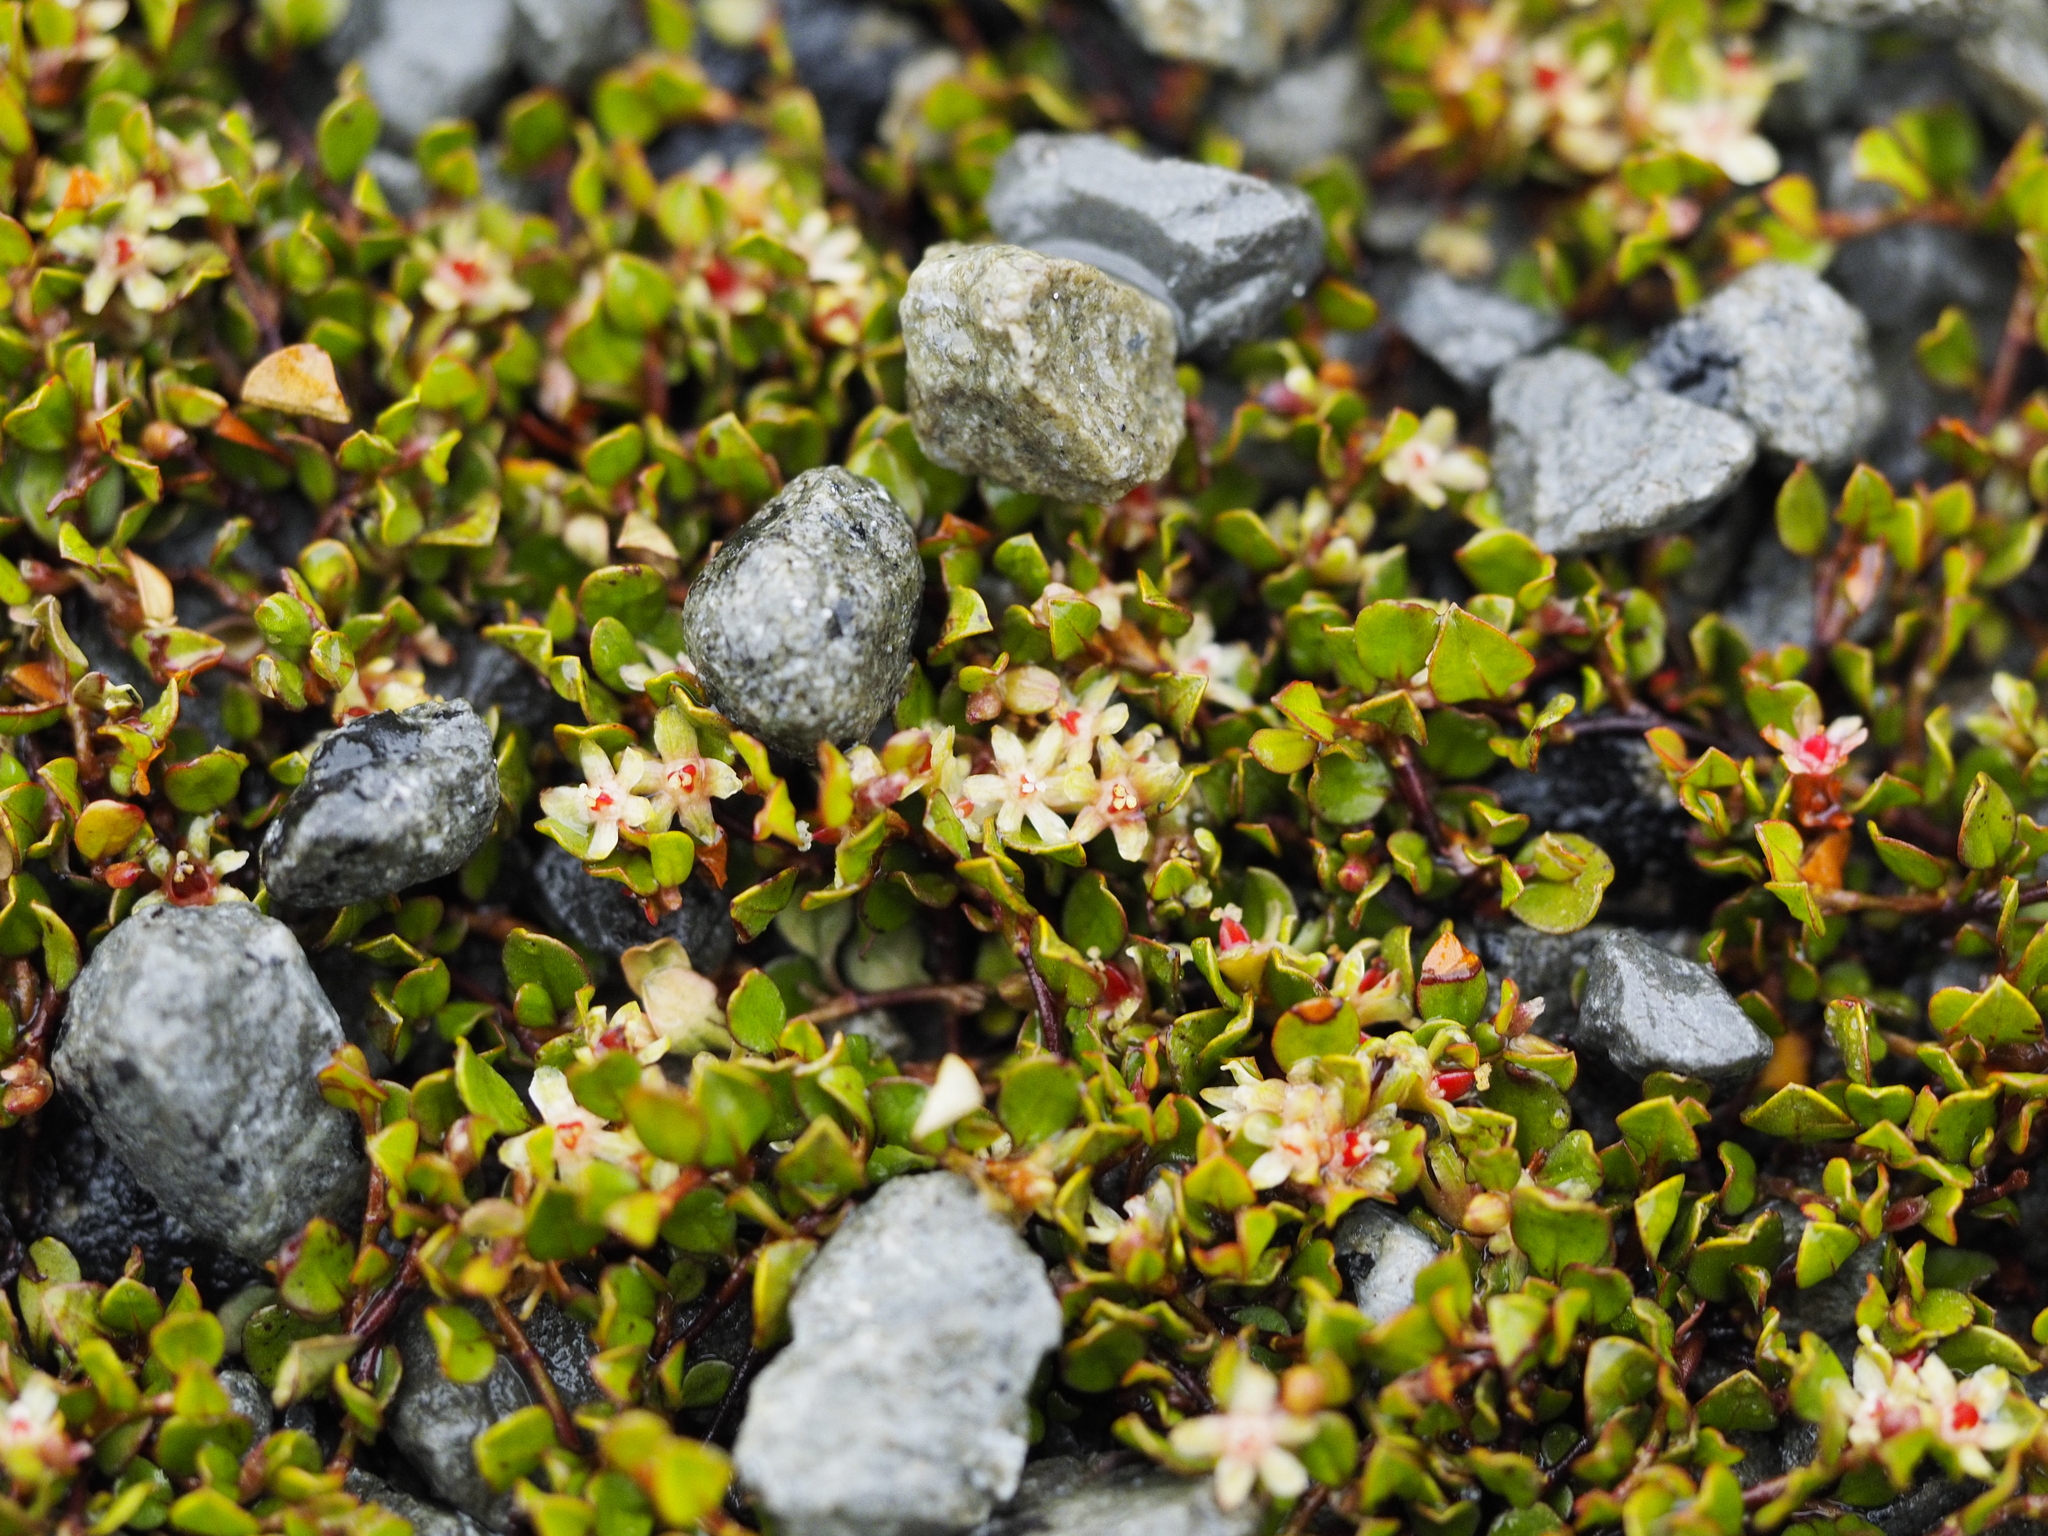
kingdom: Plantae
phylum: Tracheophyta
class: Magnoliopsida
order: Caryophyllales
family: Polygonaceae
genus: Muehlenbeckia
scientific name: Muehlenbeckia axillaris
